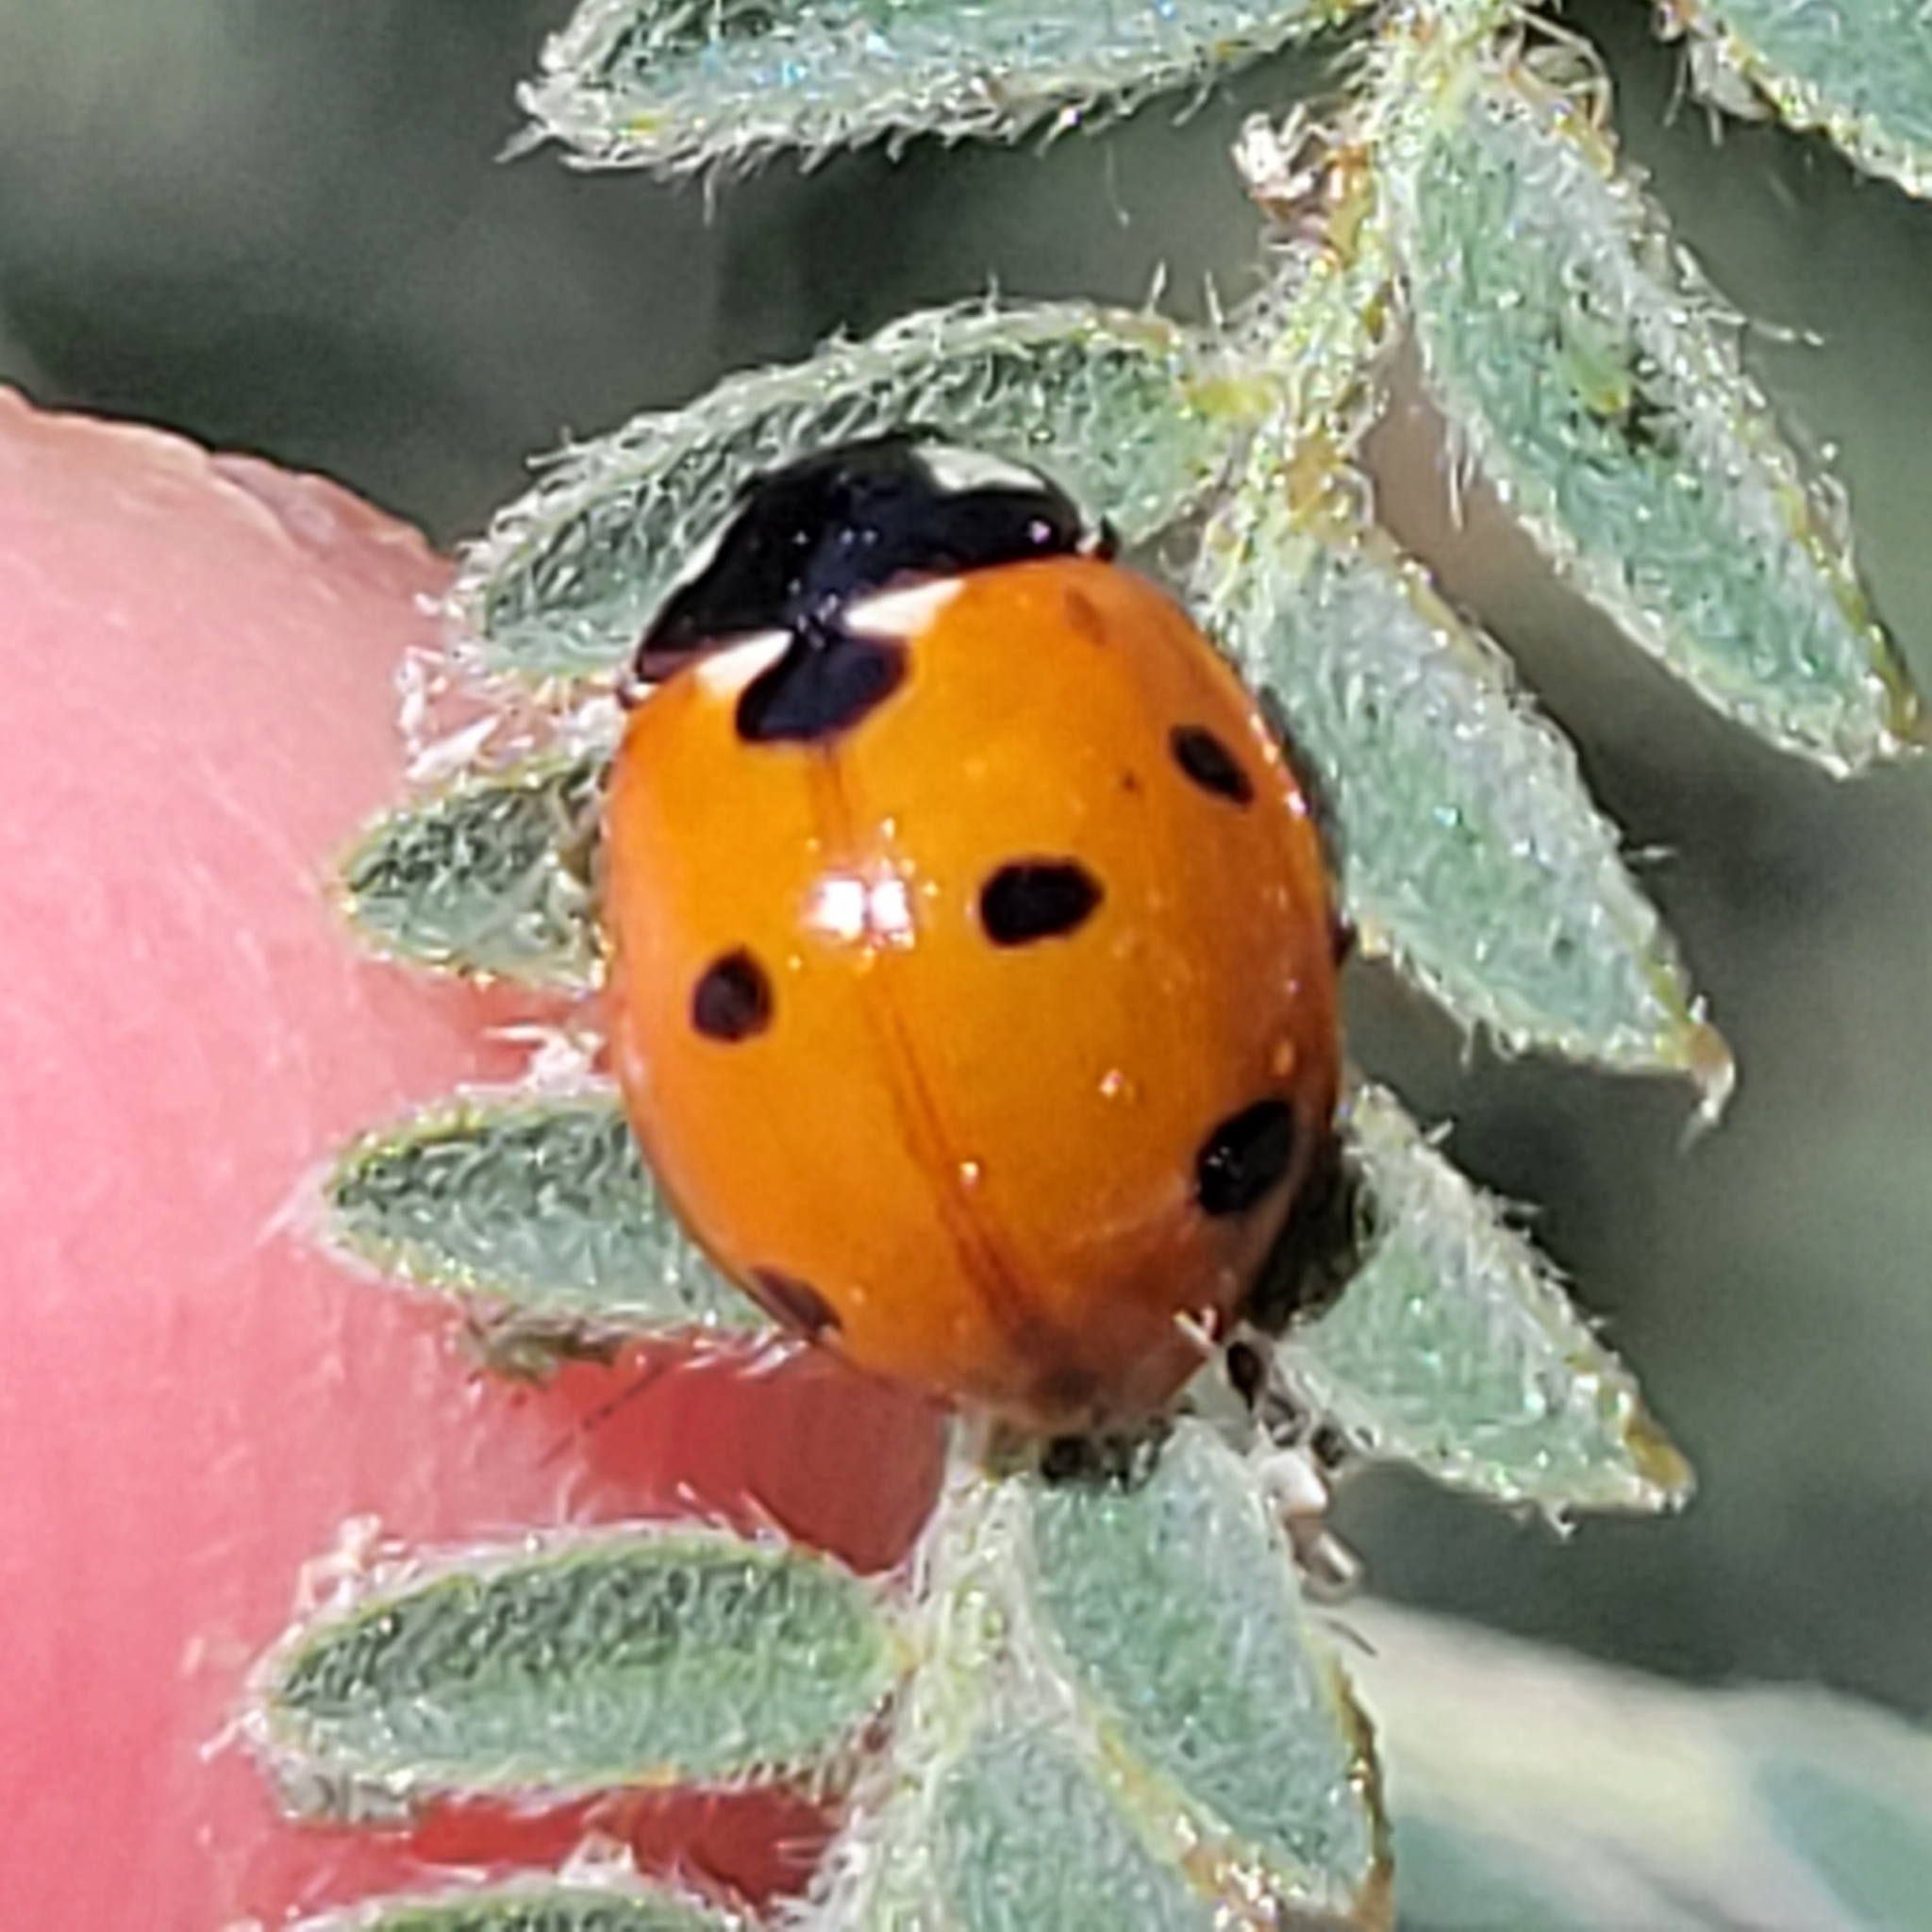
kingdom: Animalia
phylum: Arthropoda
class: Insecta
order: Coleoptera
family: Coccinellidae
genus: Coccinella
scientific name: Coccinella septempunctata
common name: Sevenspotted lady beetle
